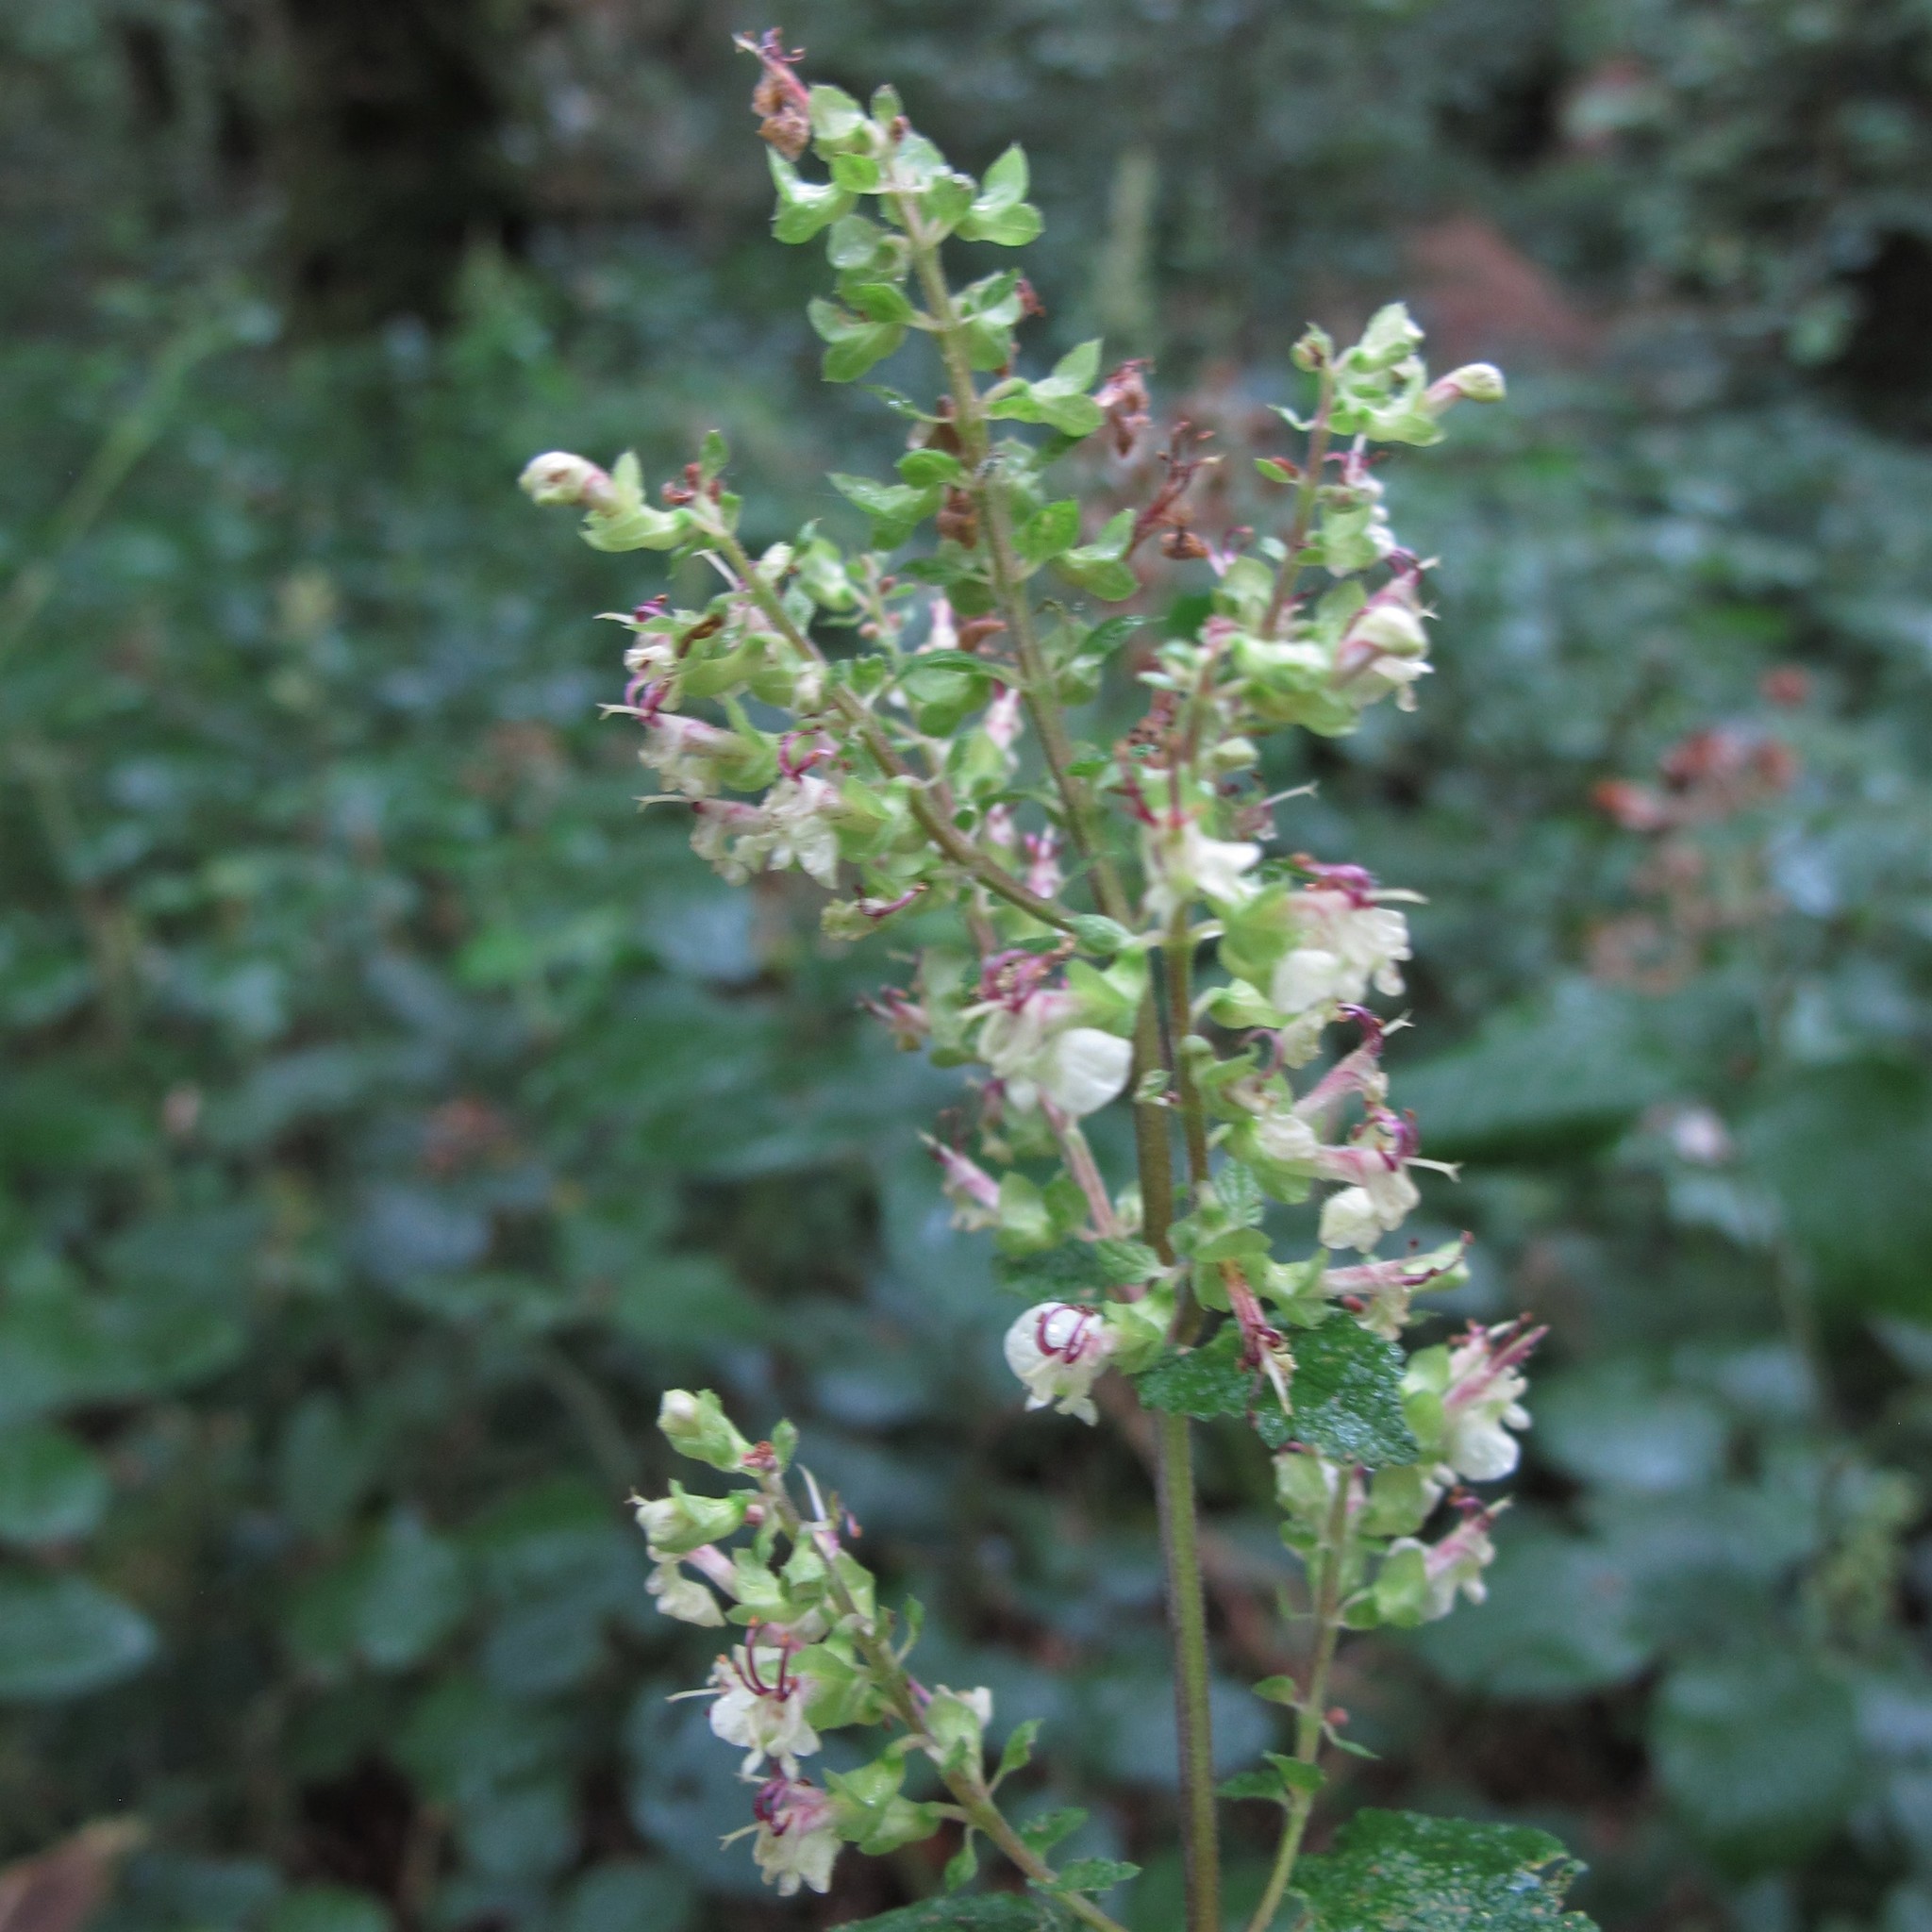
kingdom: Plantae
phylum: Tracheophyta
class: Magnoliopsida
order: Lamiales
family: Lamiaceae
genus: Teucrium
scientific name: Teucrium scorodonia
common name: Woodland germander
